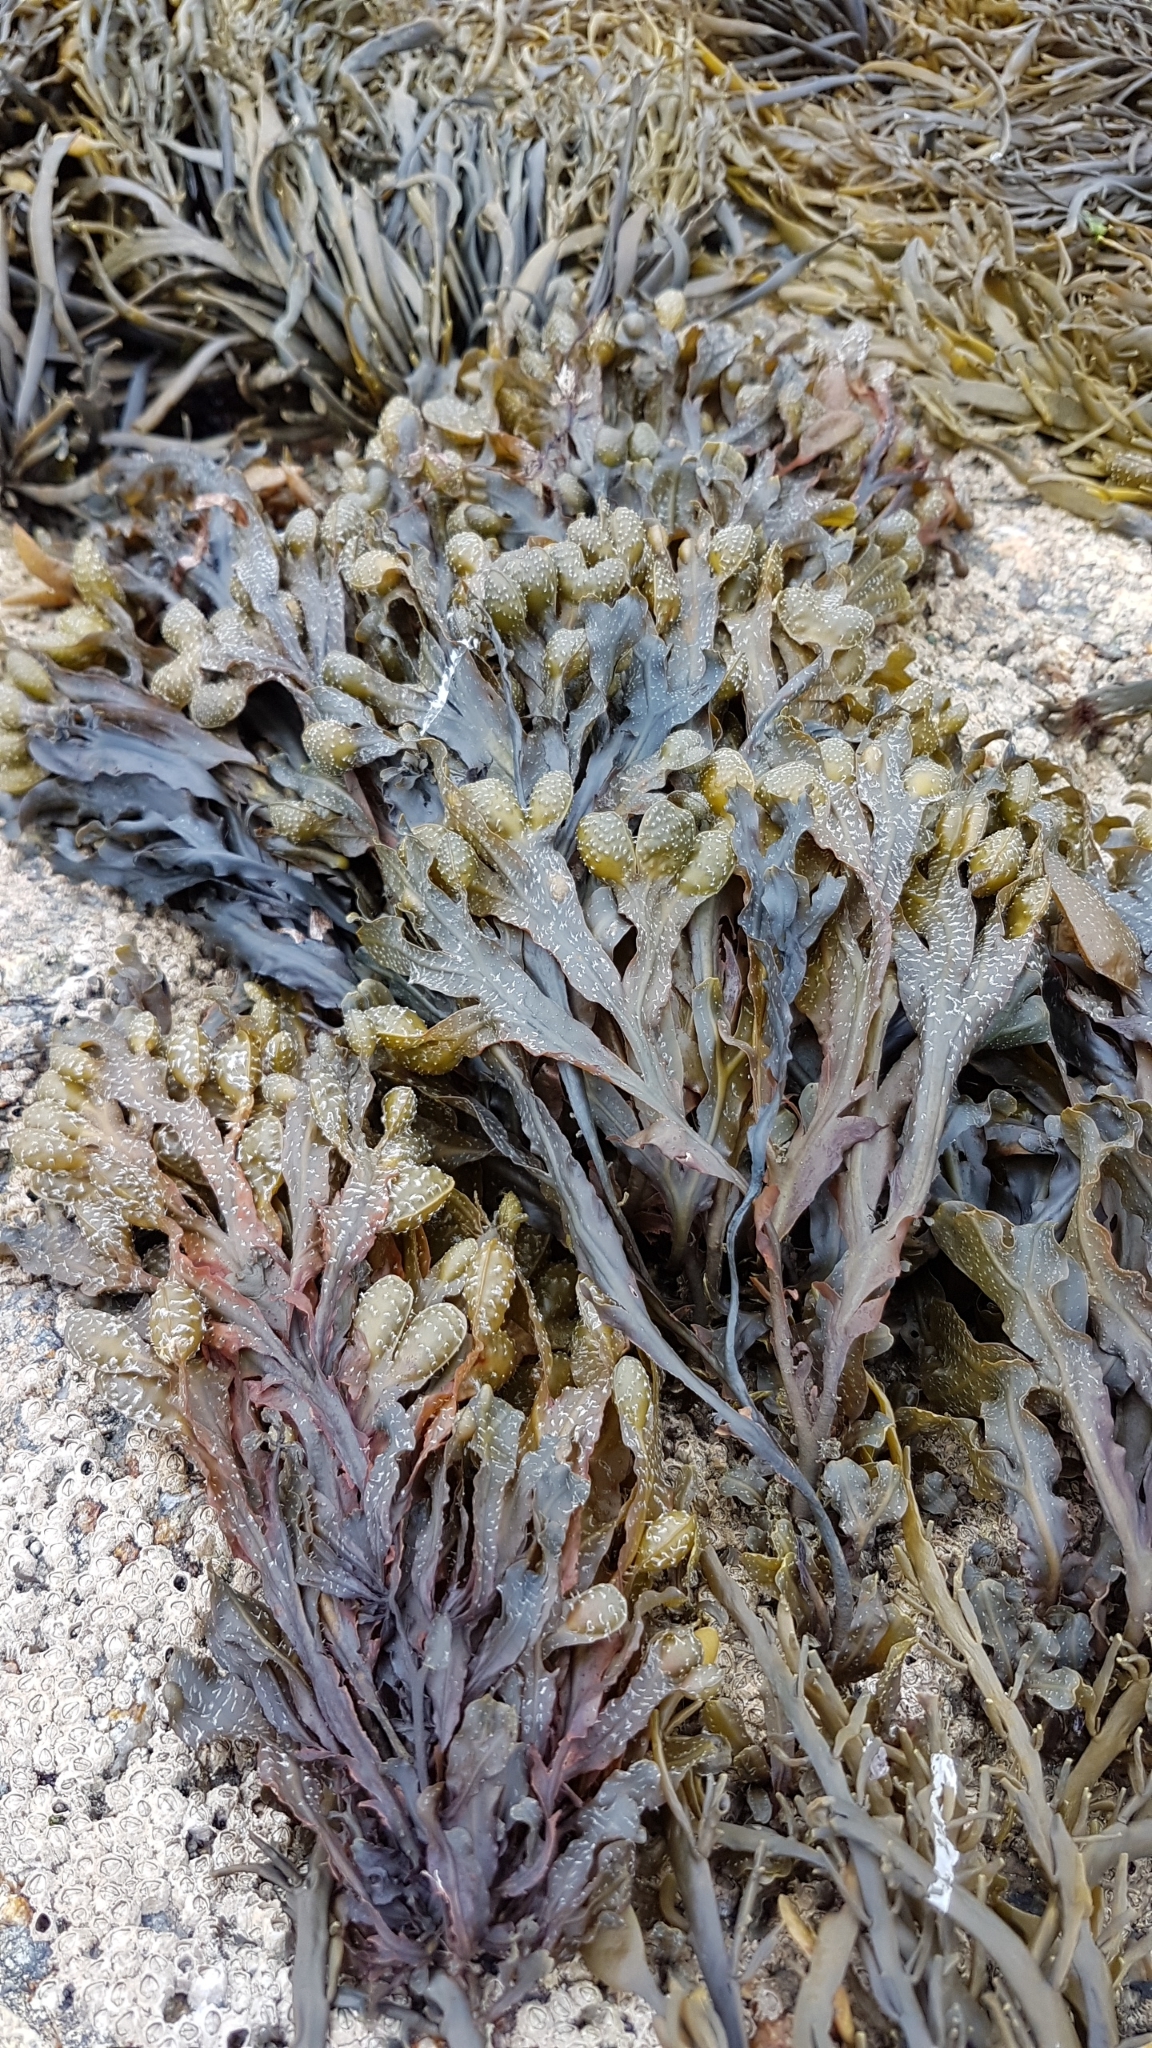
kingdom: Chromista
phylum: Ochrophyta
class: Phaeophyceae
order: Fucales
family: Fucaceae
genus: Fucus
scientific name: Fucus
